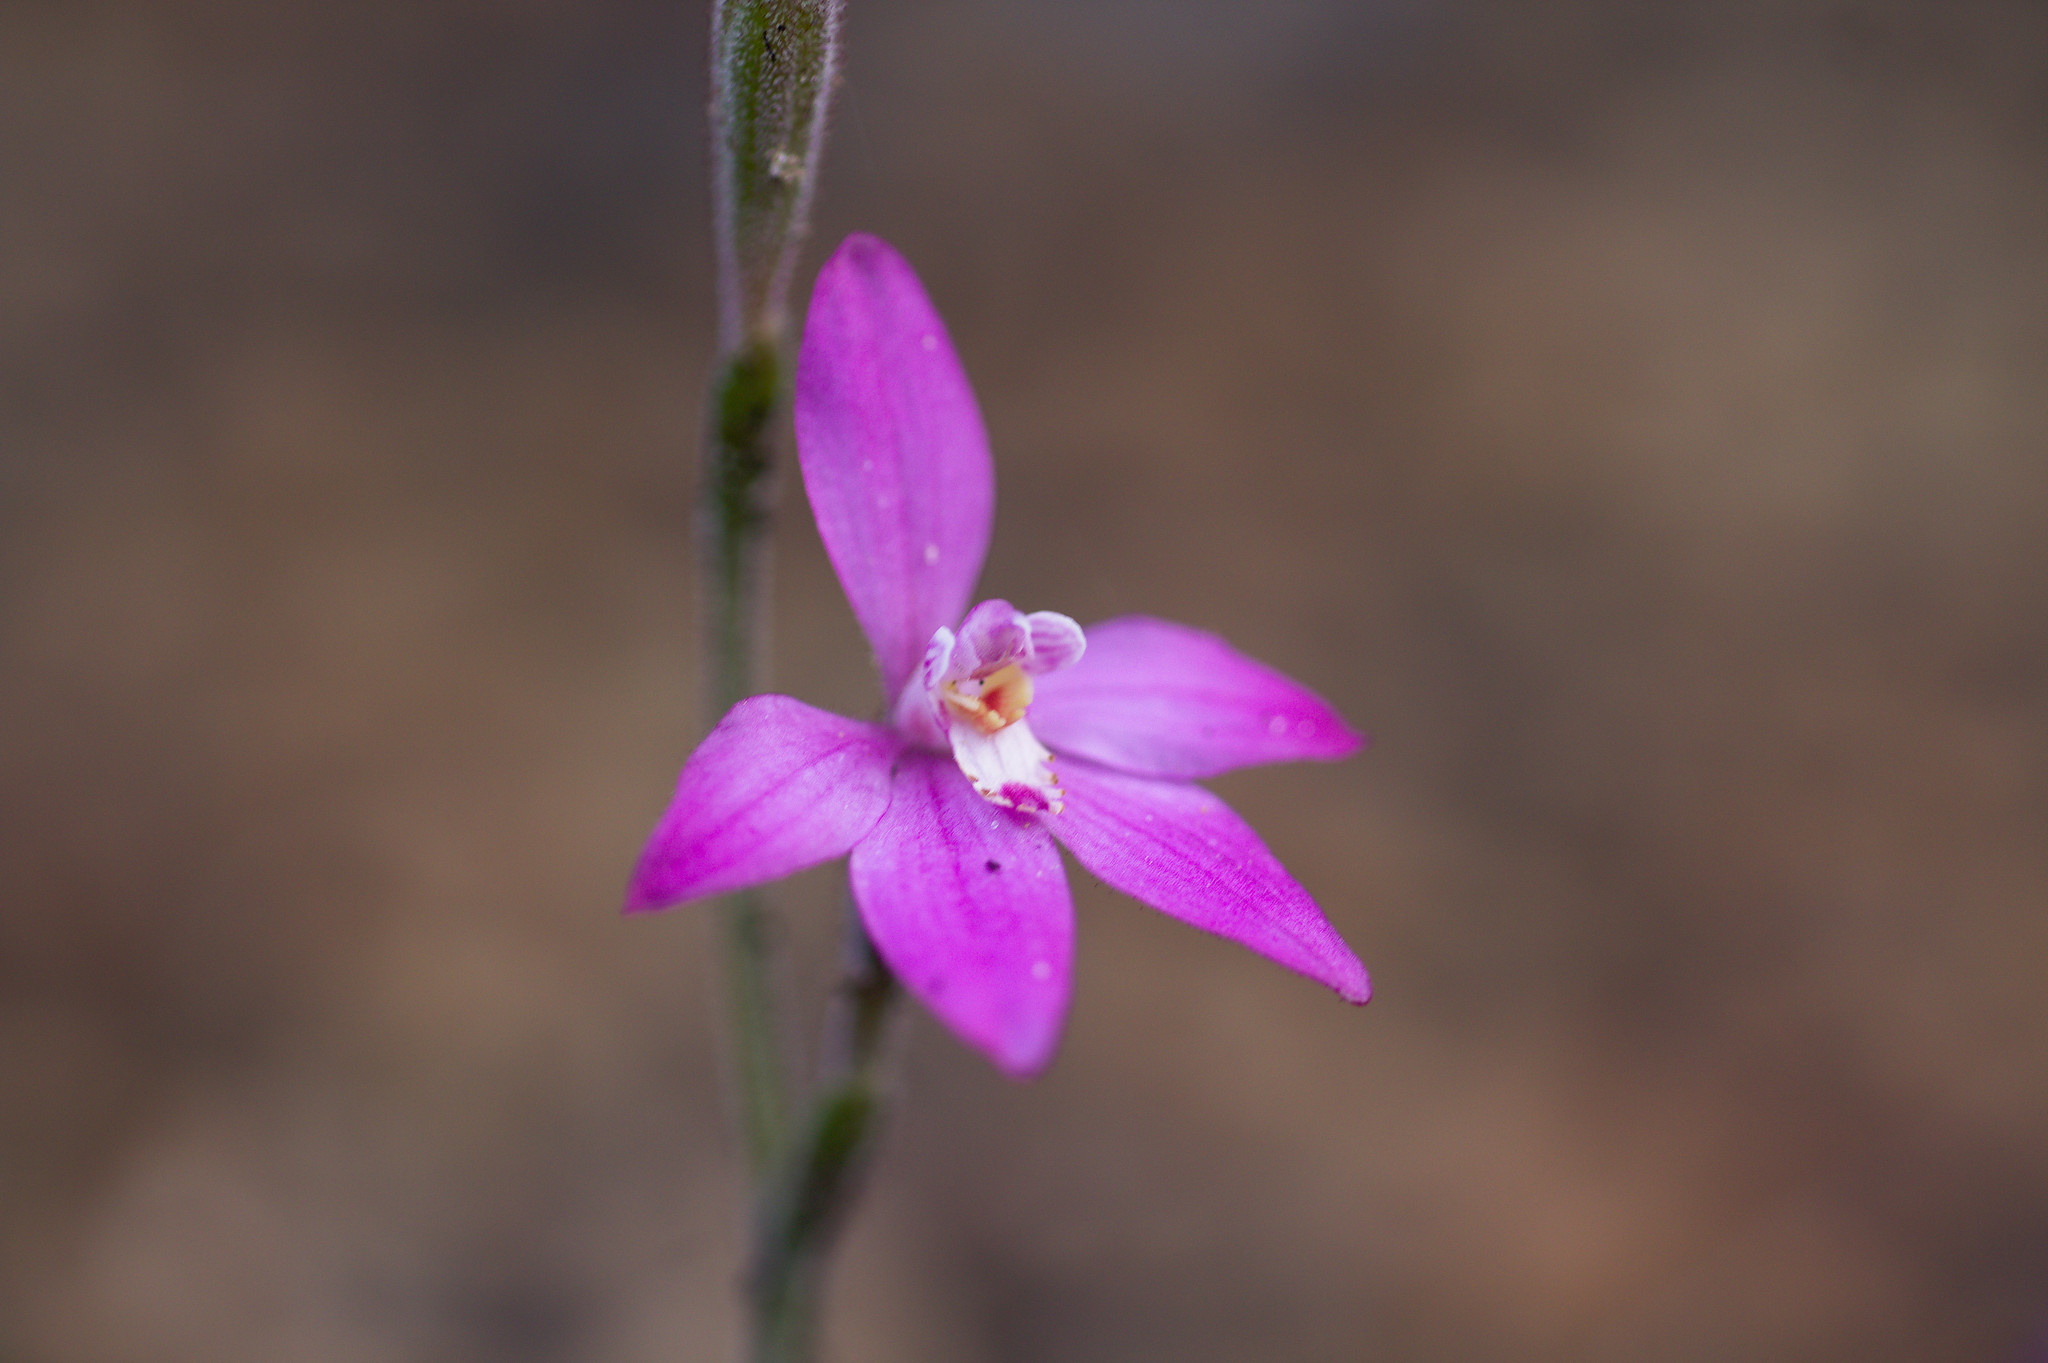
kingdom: Plantae
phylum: Tracheophyta
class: Liliopsida
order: Asparagales
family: Orchidaceae
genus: Caladenia
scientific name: Caladenia reptans
